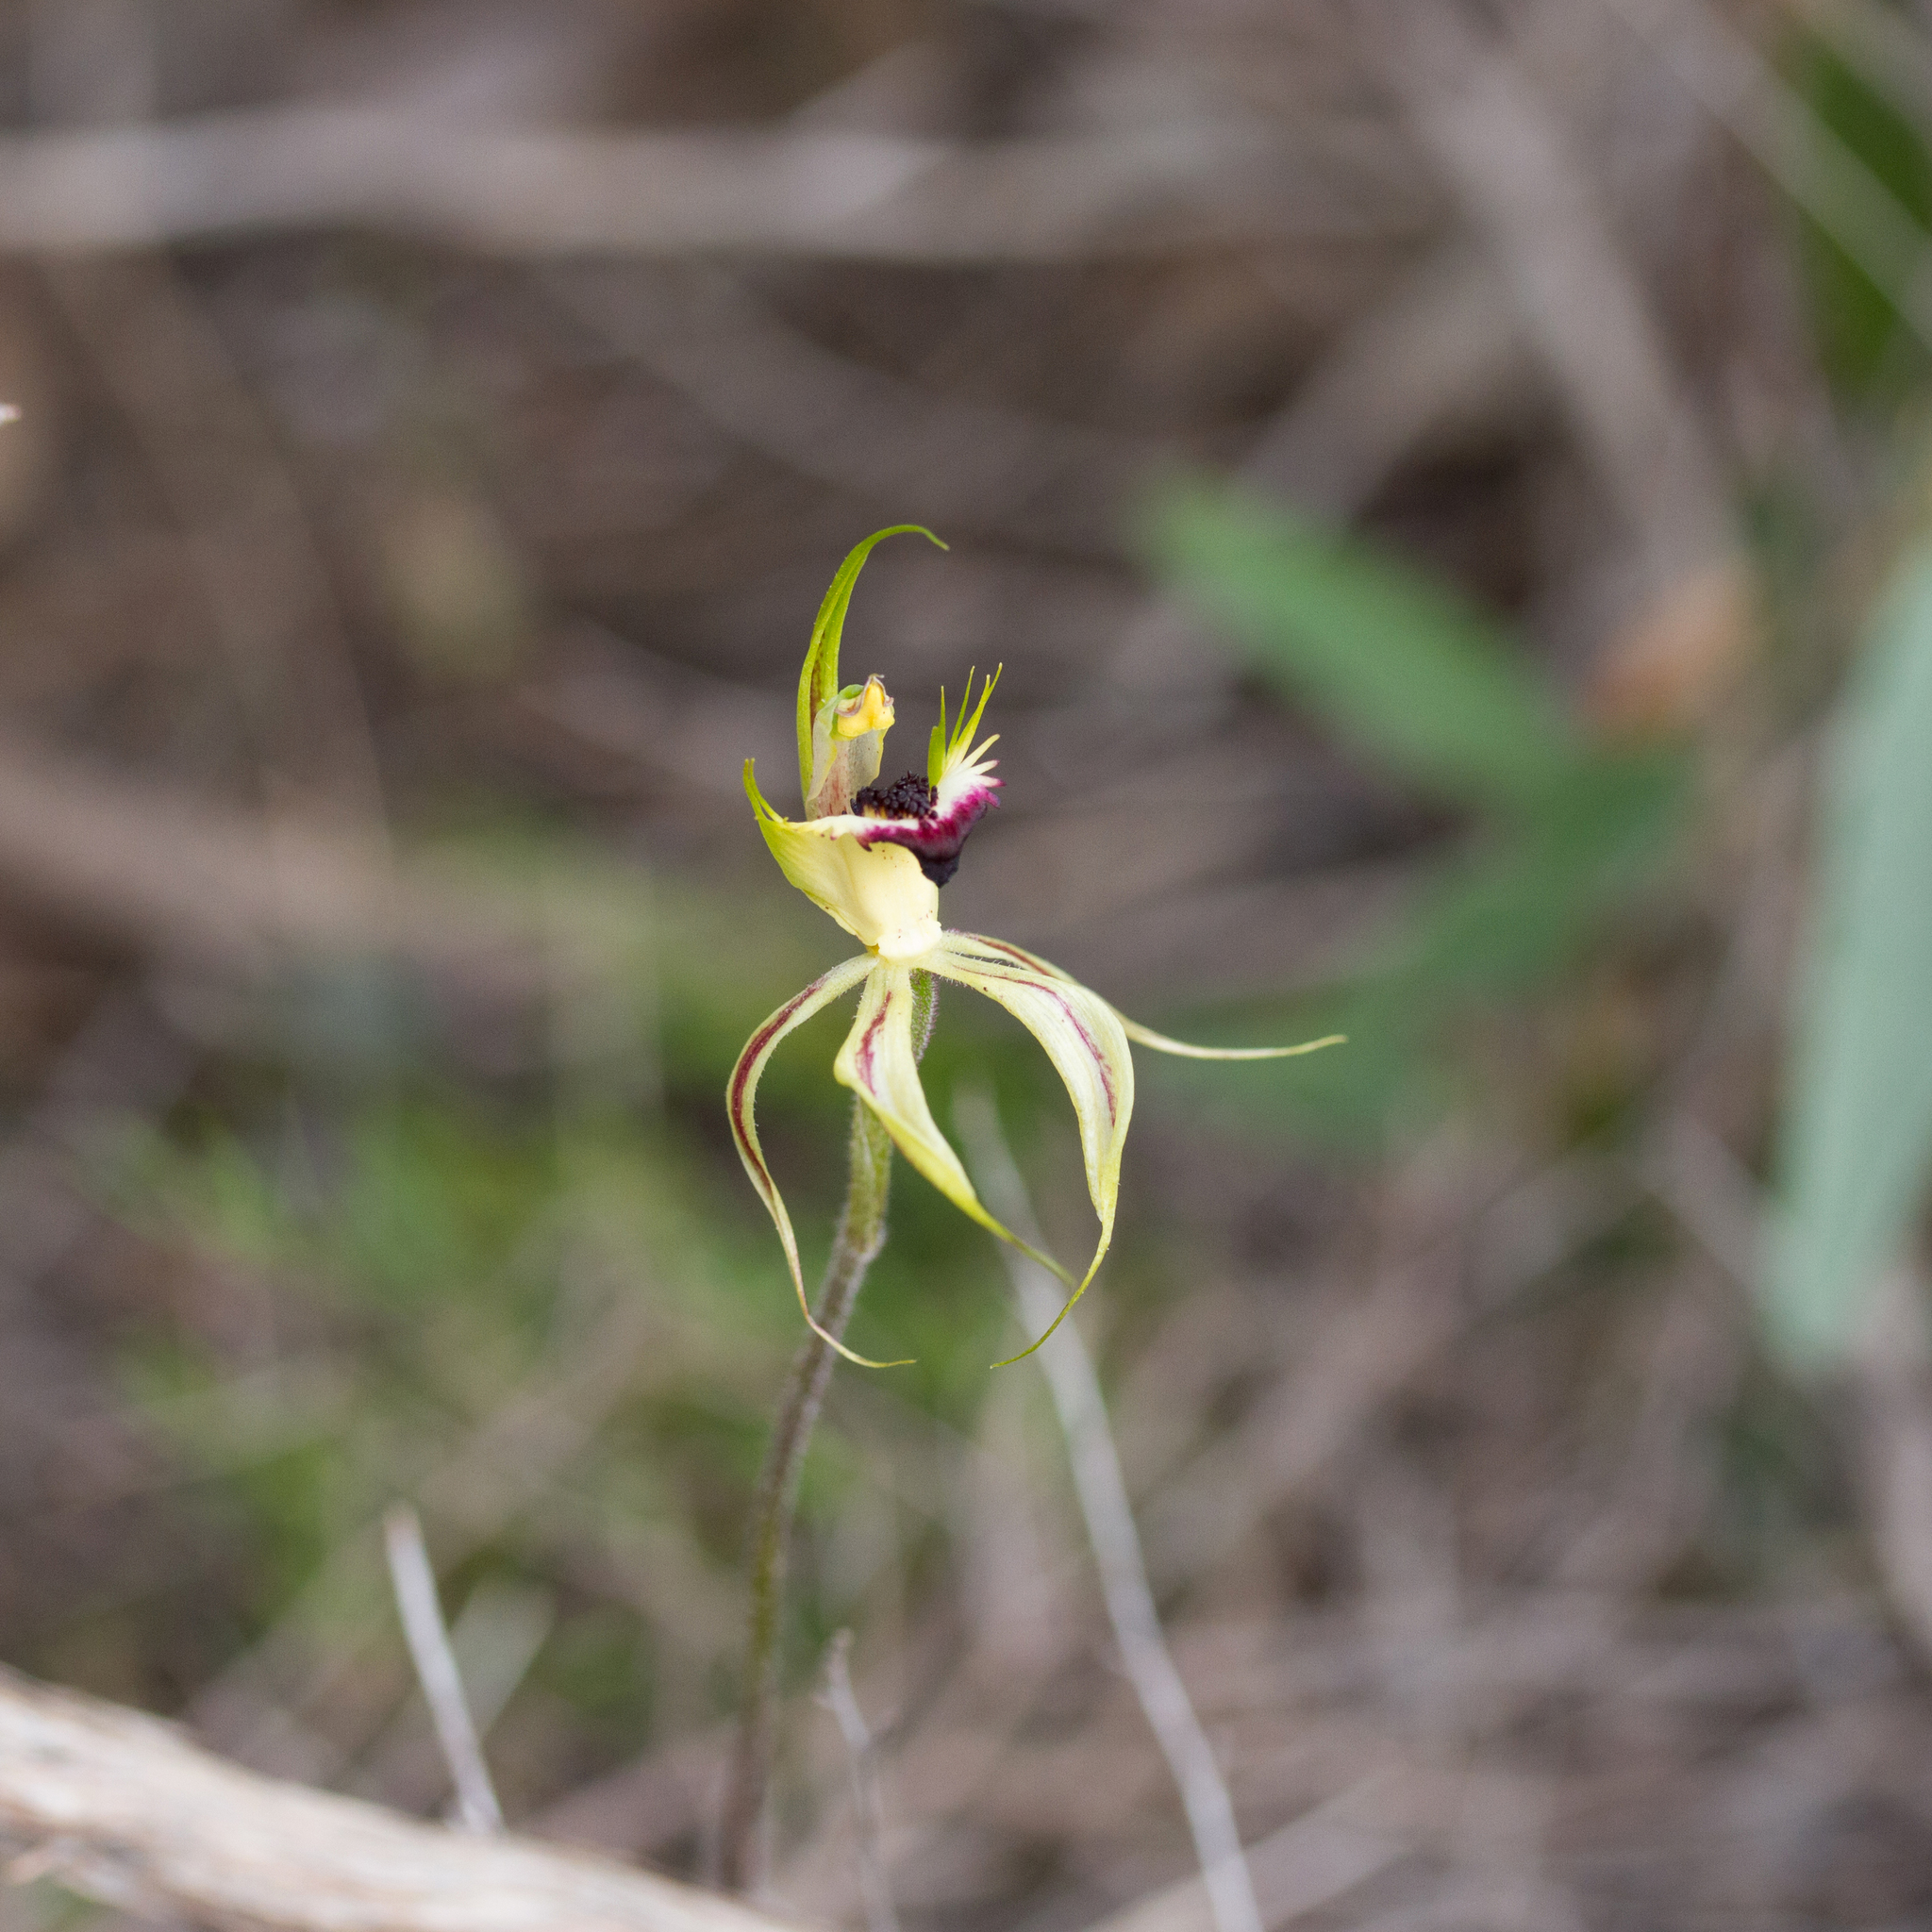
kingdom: Plantae
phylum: Tracheophyta
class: Liliopsida
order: Asparagales
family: Orchidaceae
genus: Caladenia
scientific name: Caladenia stricta
